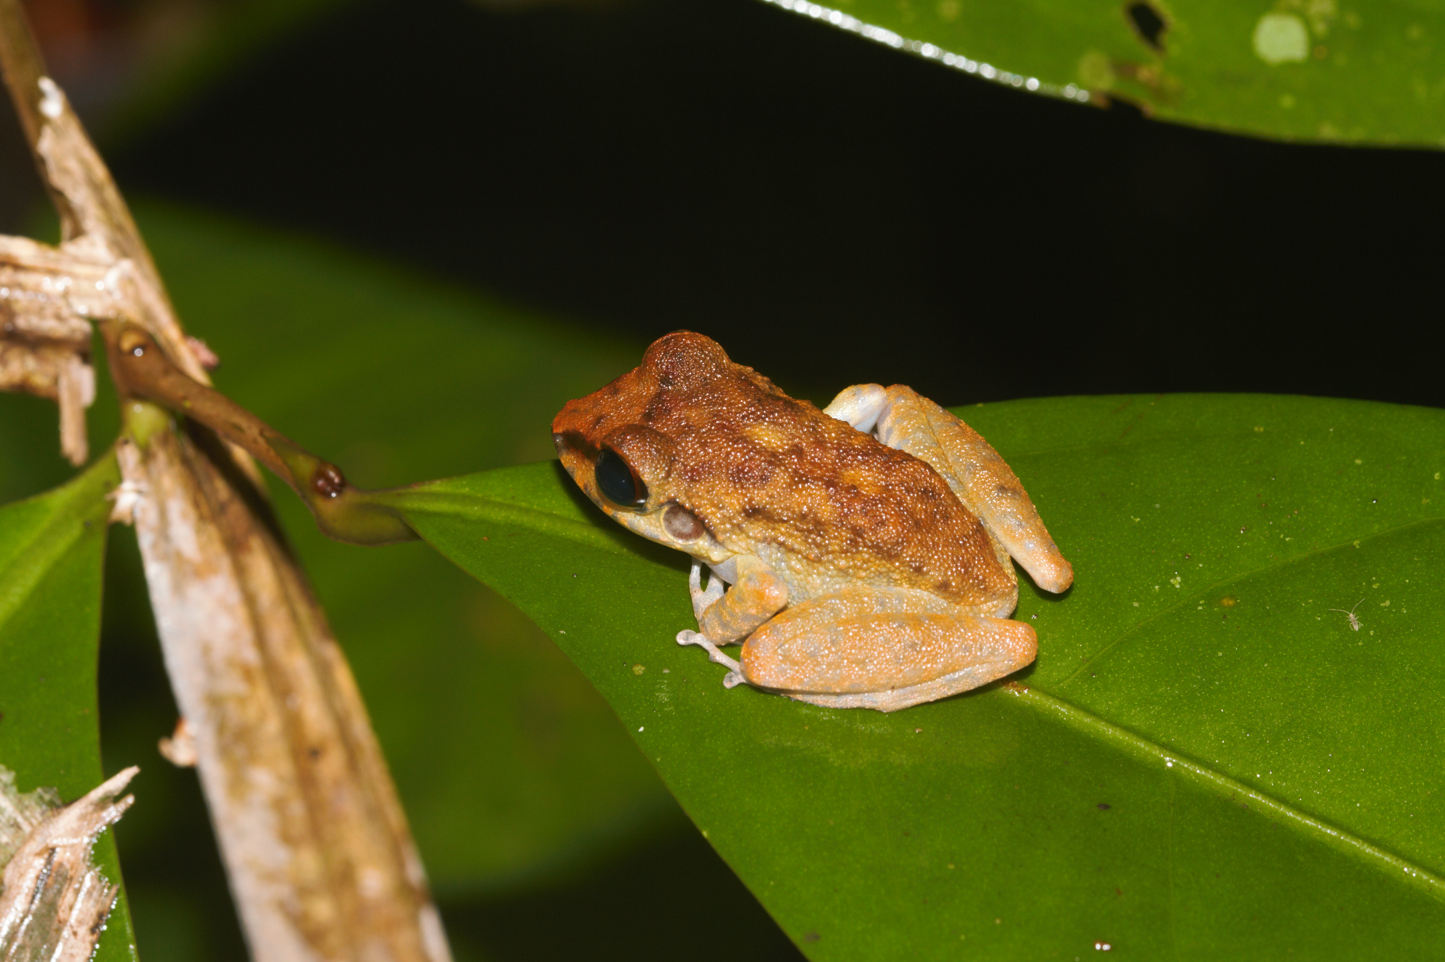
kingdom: Animalia
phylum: Chordata
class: Amphibia
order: Anura
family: Craugastoridae
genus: Pristimantis
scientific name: Pristimantis zeuctotylus
